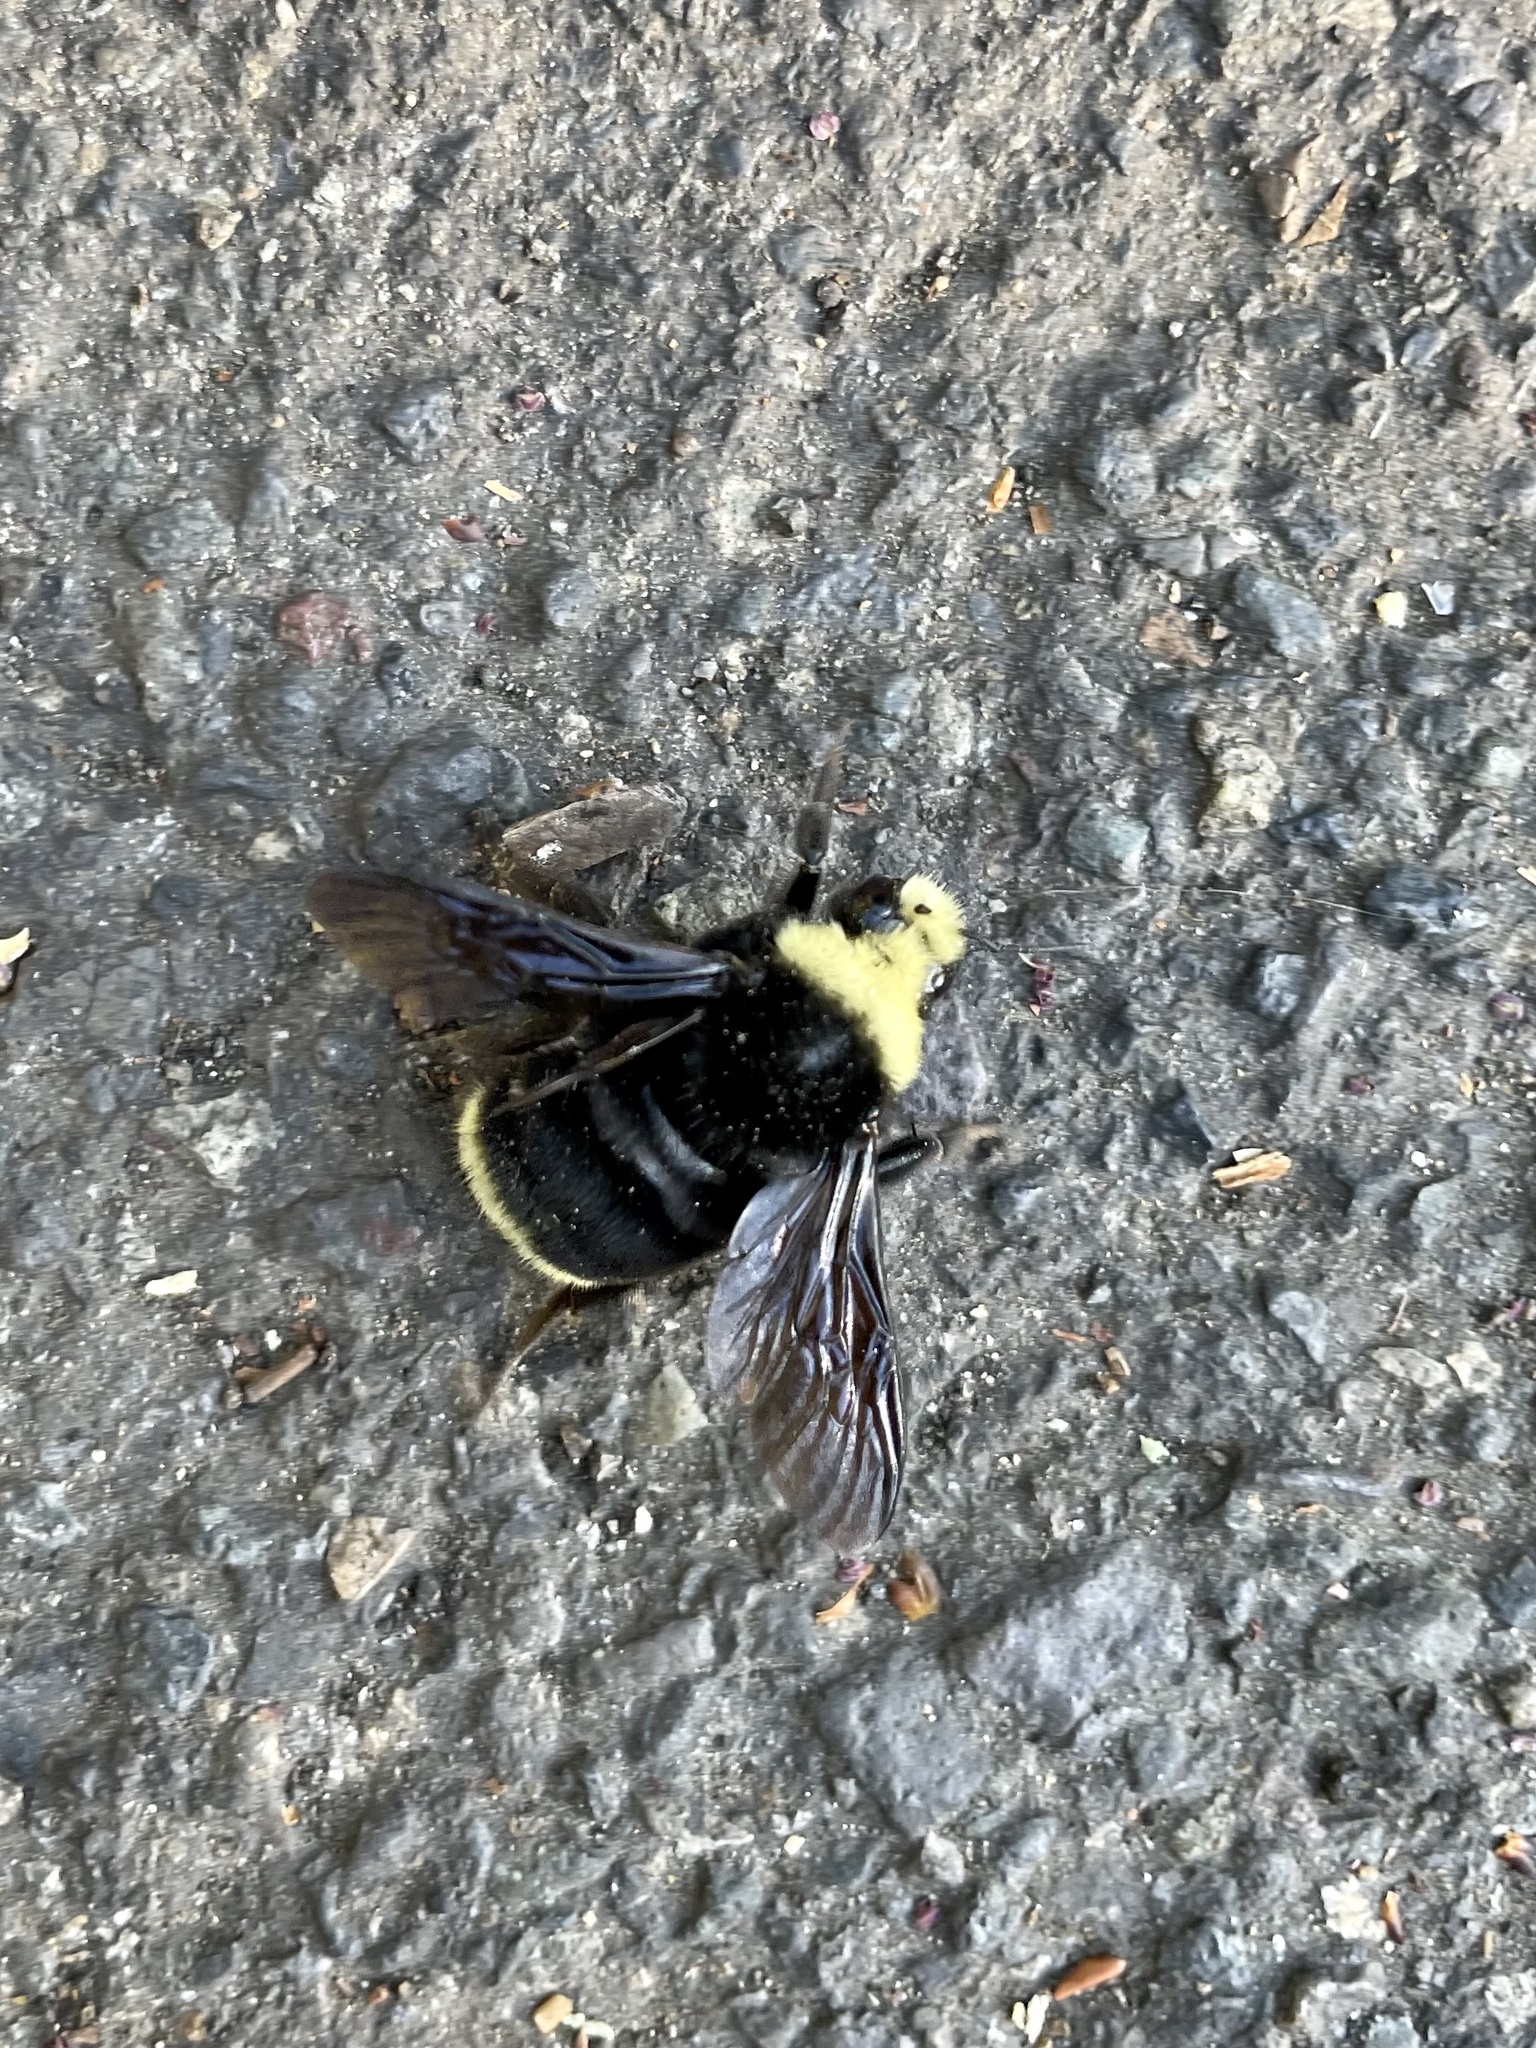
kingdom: Animalia
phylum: Arthropoda
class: Insecta
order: Hymenoptera
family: Apidae
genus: Bombus
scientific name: Bombus vosnesenskii
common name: Vosnesensky bumble bee
